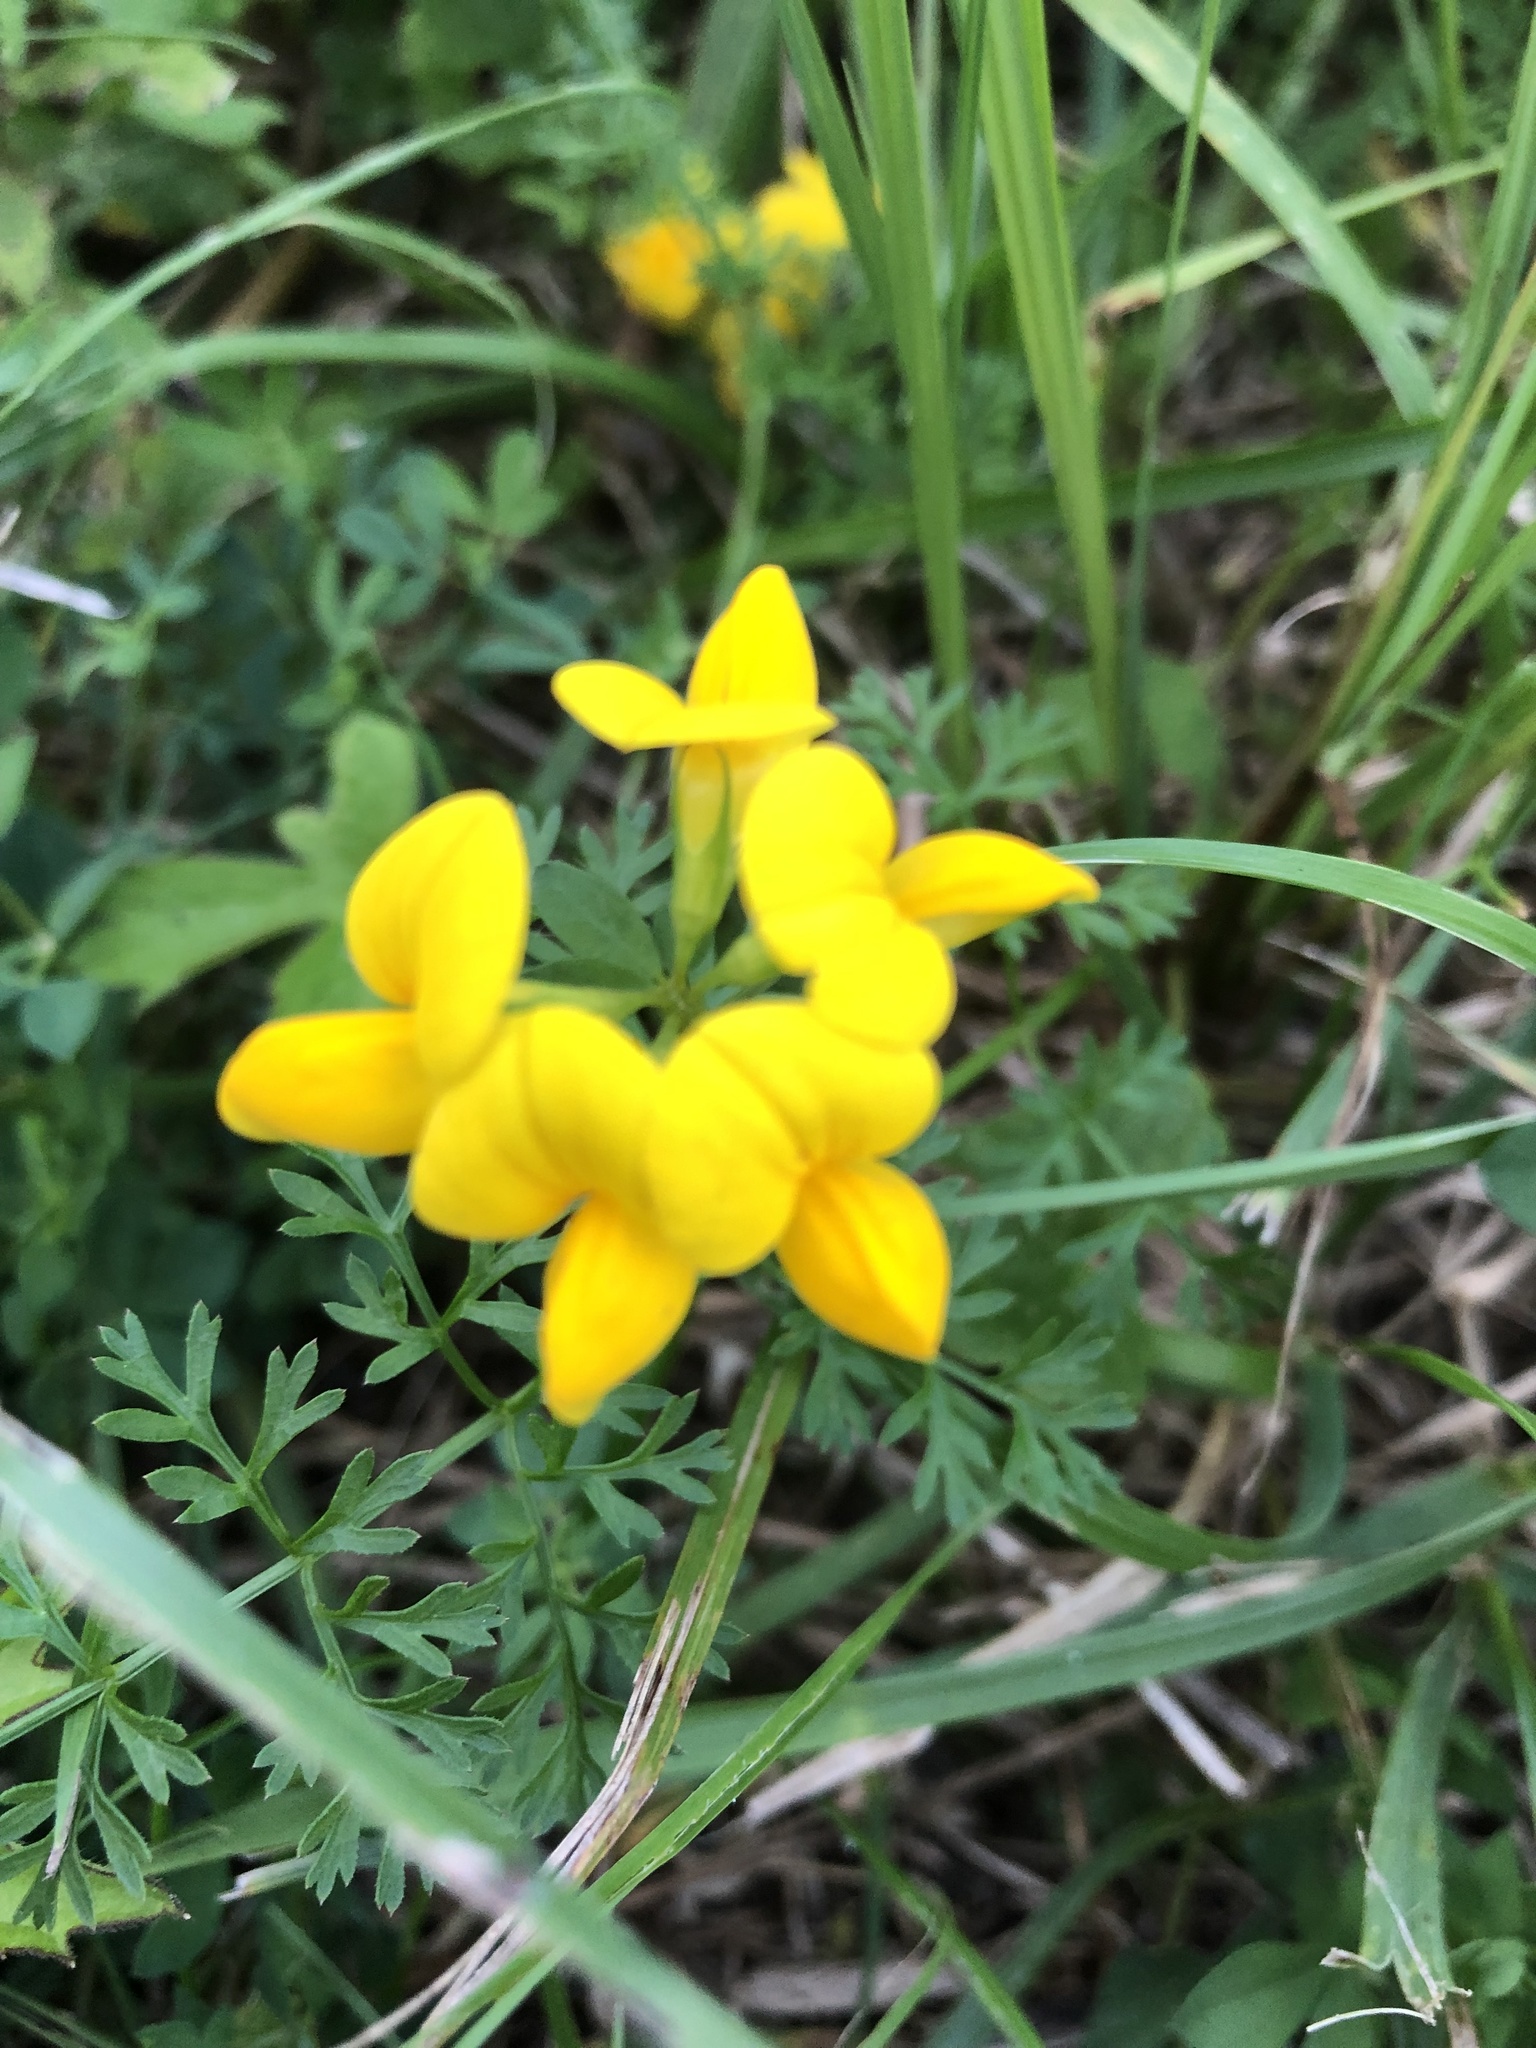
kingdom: Plantae
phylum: Tracheophyta
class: Magnoliopsida
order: Fabales
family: Fabaceae
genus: Lotus
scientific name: Lotus corniculatus
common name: Common bird's-foot-trefoil
